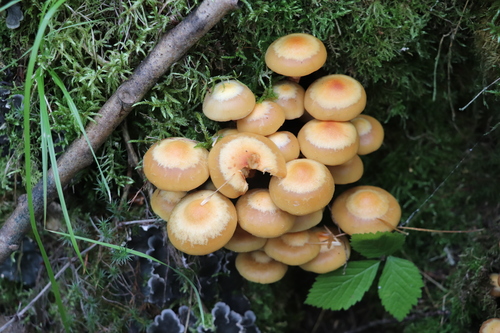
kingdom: Fungi
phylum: Basidiomycota
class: Agaricomycetes
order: Agaricales
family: Strophariaceae
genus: Kuehneromyces
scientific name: Kuehneromyces mutabilis
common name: Sheathed woodtuft
